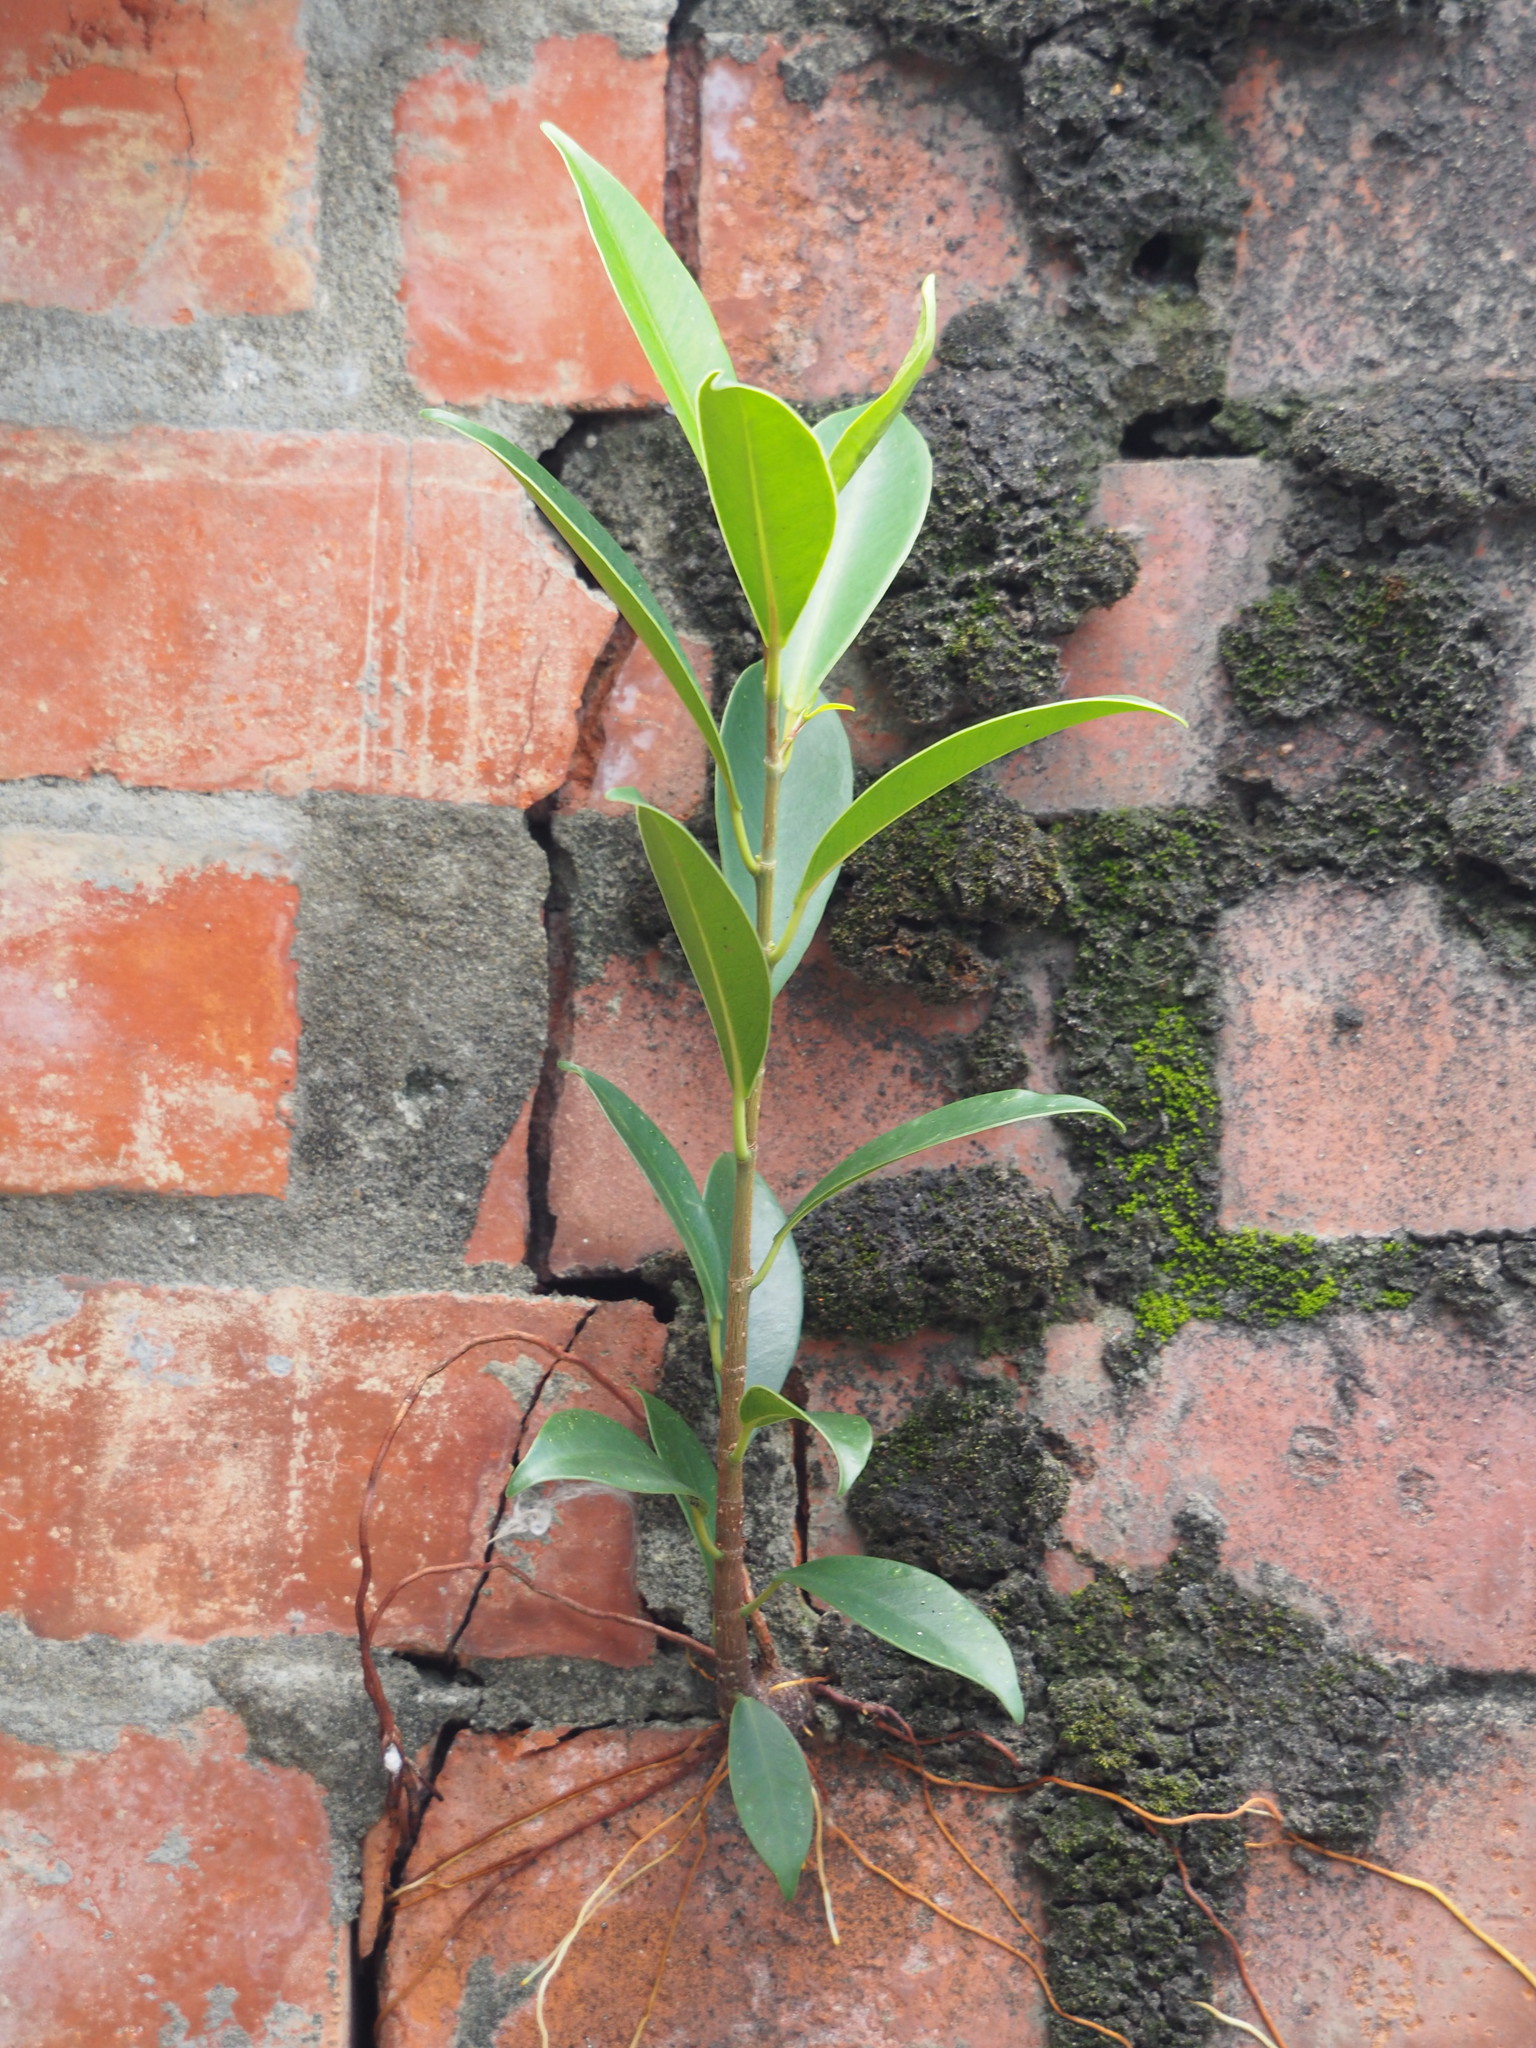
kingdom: Plantae
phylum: Tracheophyta
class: Magnoliopsida
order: Rosales
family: Moraceae
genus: Ficus
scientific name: Ficus microcarpa
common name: Chinese banyan
